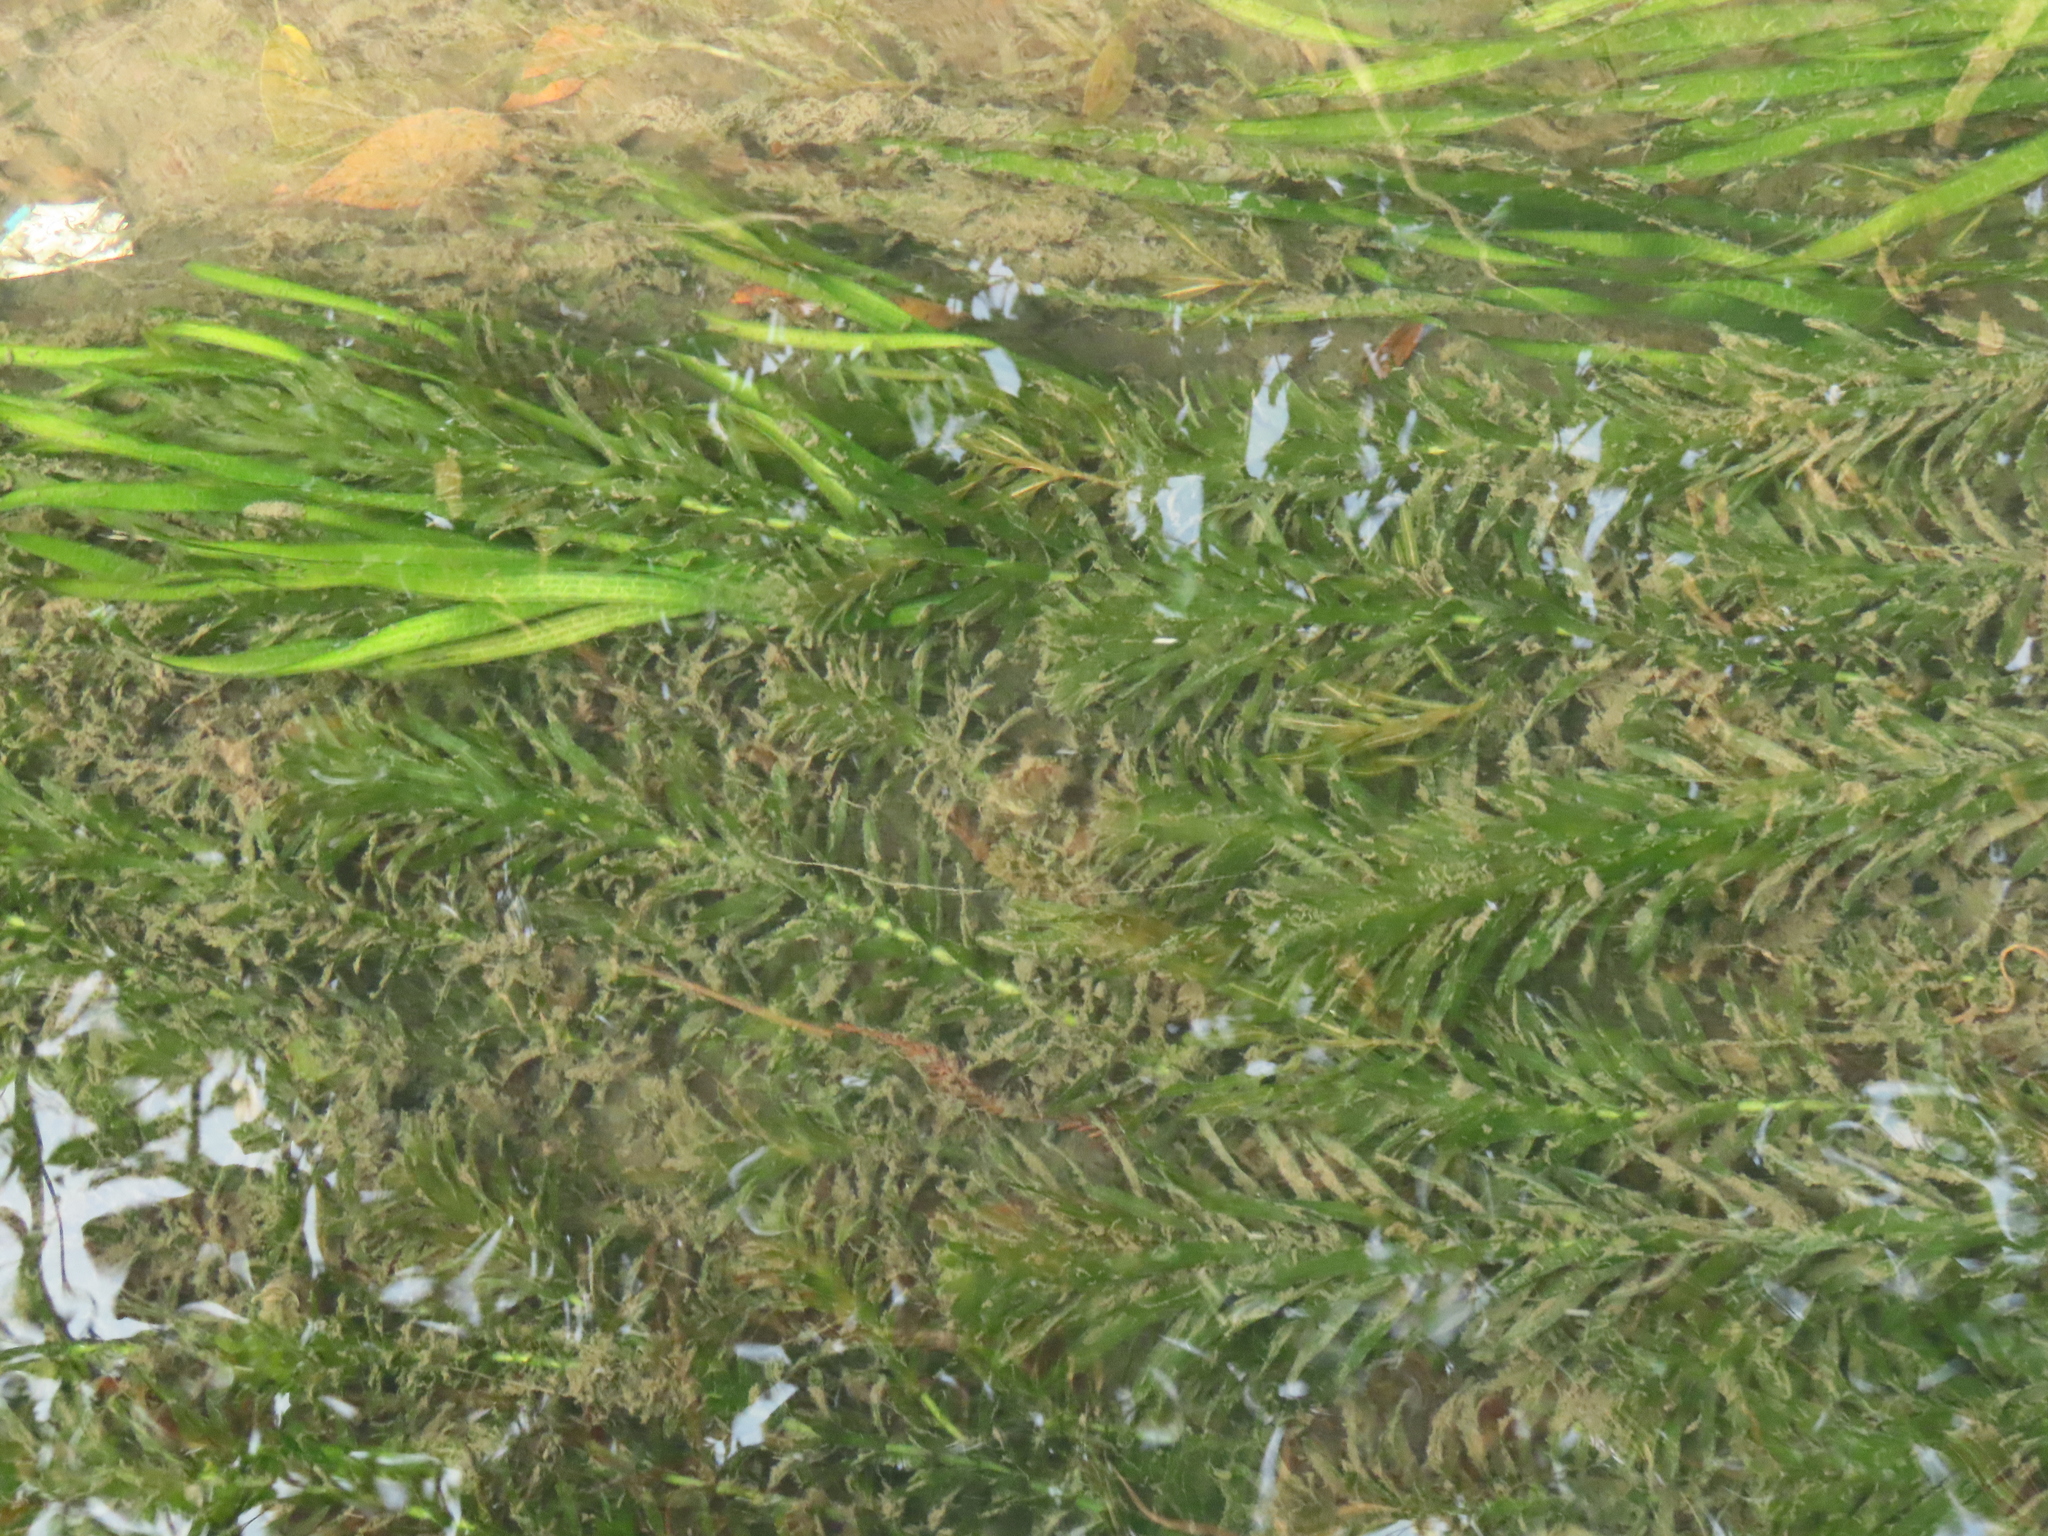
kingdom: Plantae
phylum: Tracheophyta
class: Liliopsida
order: Alismatales
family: Hydrocharitaceae
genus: Elodea
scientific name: Elodea densa
